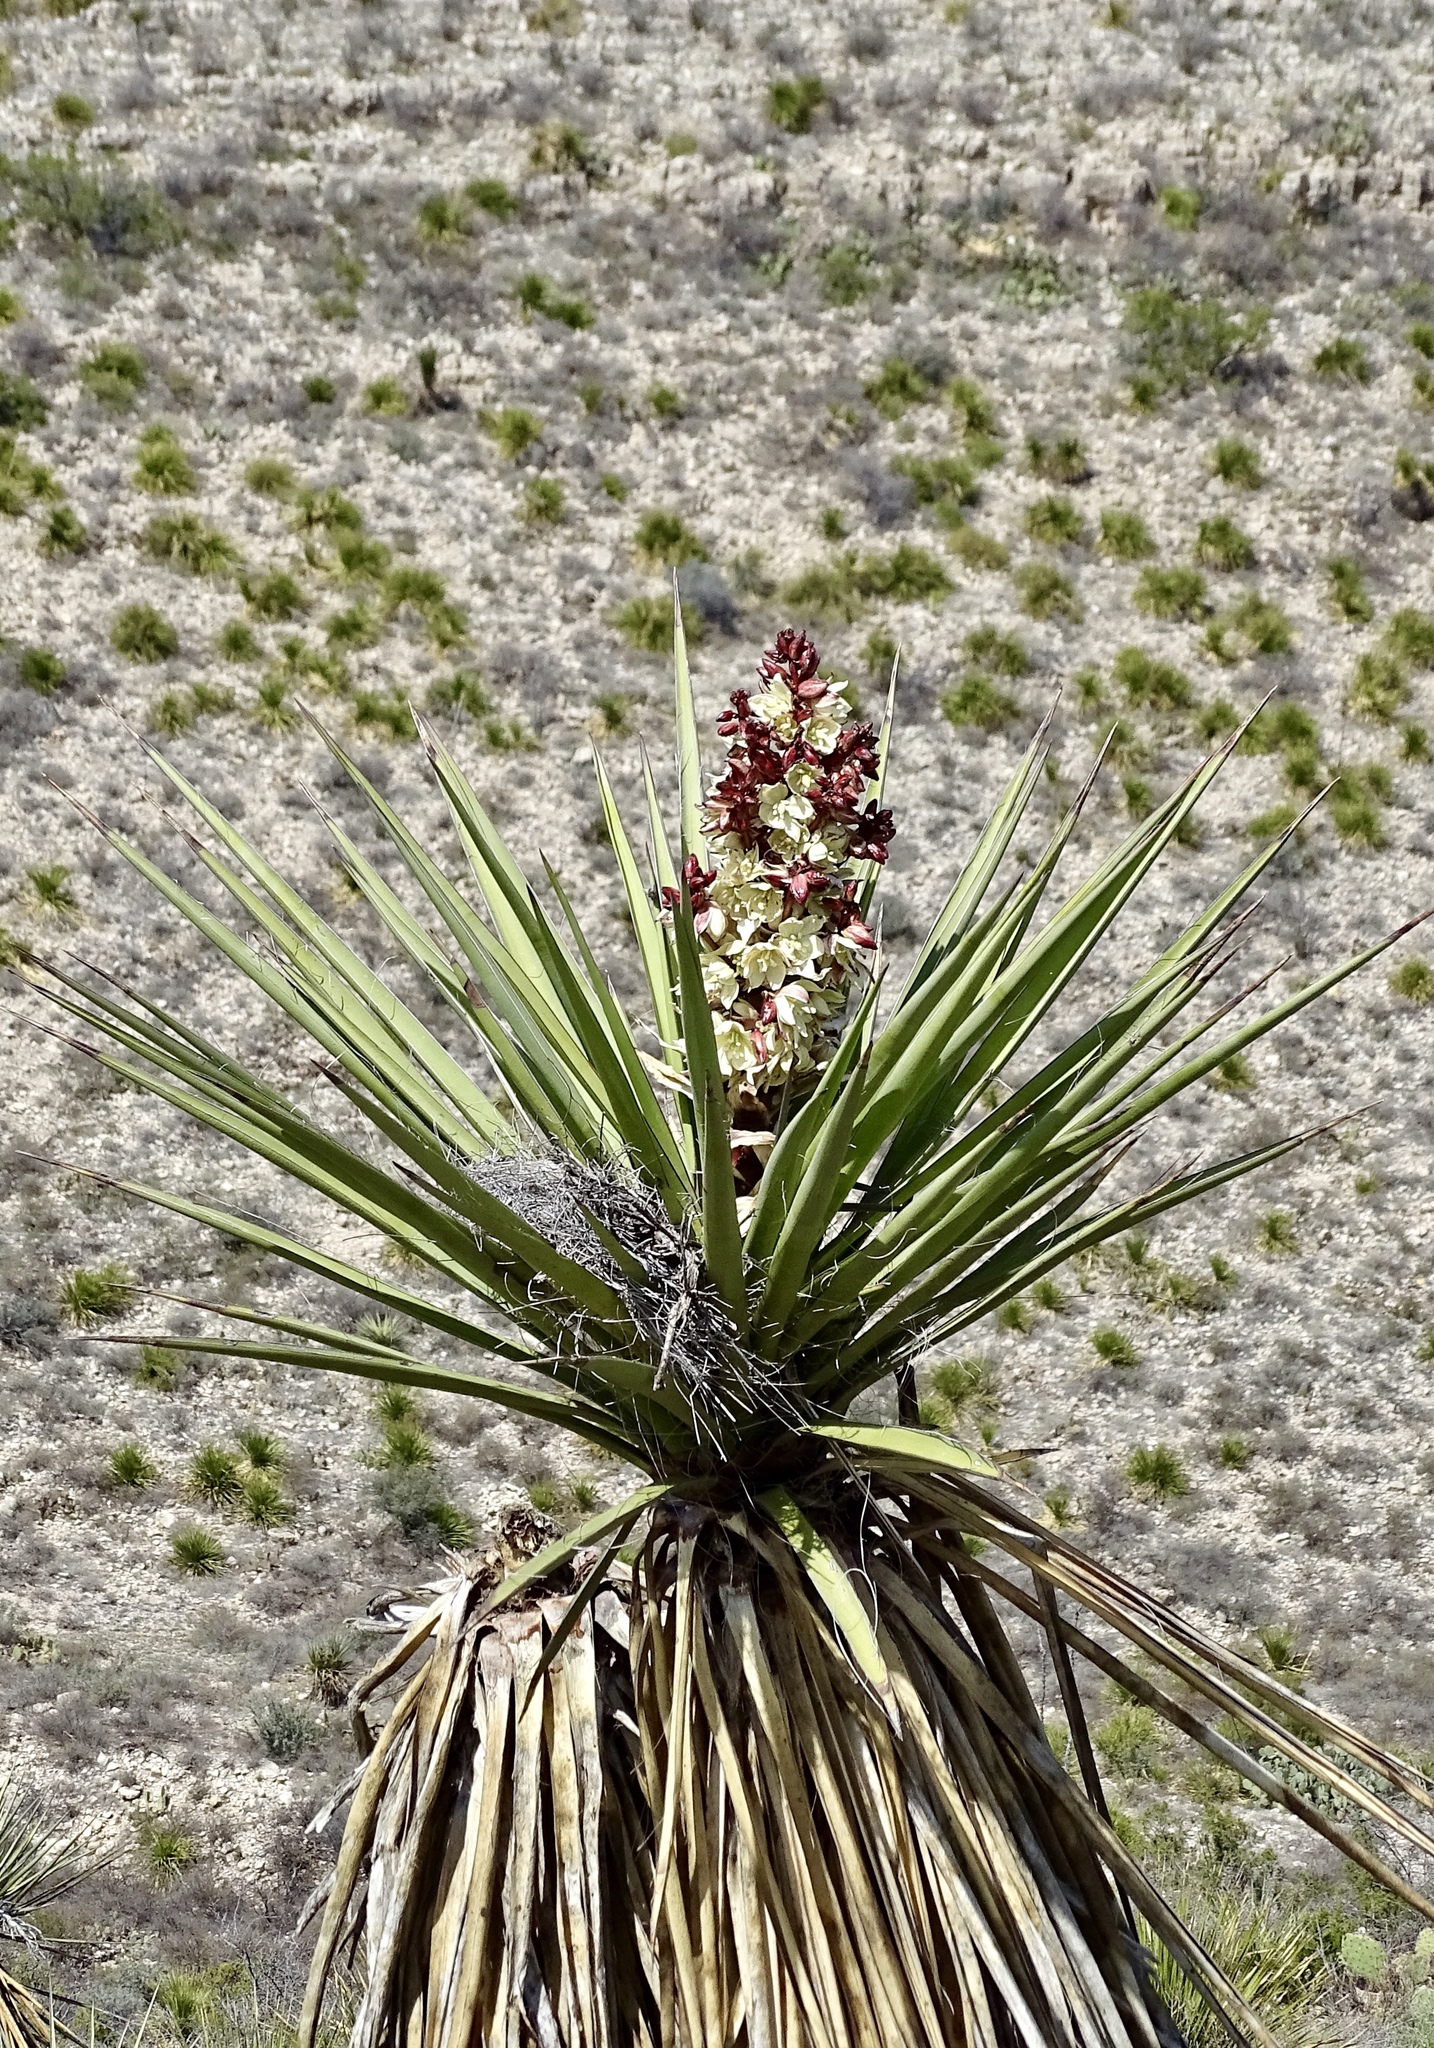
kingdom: Plantae
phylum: Tracheophyta
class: Liliopsida
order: Asparagales
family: Asparagaceae
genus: Yucca
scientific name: Yucca treculiana
